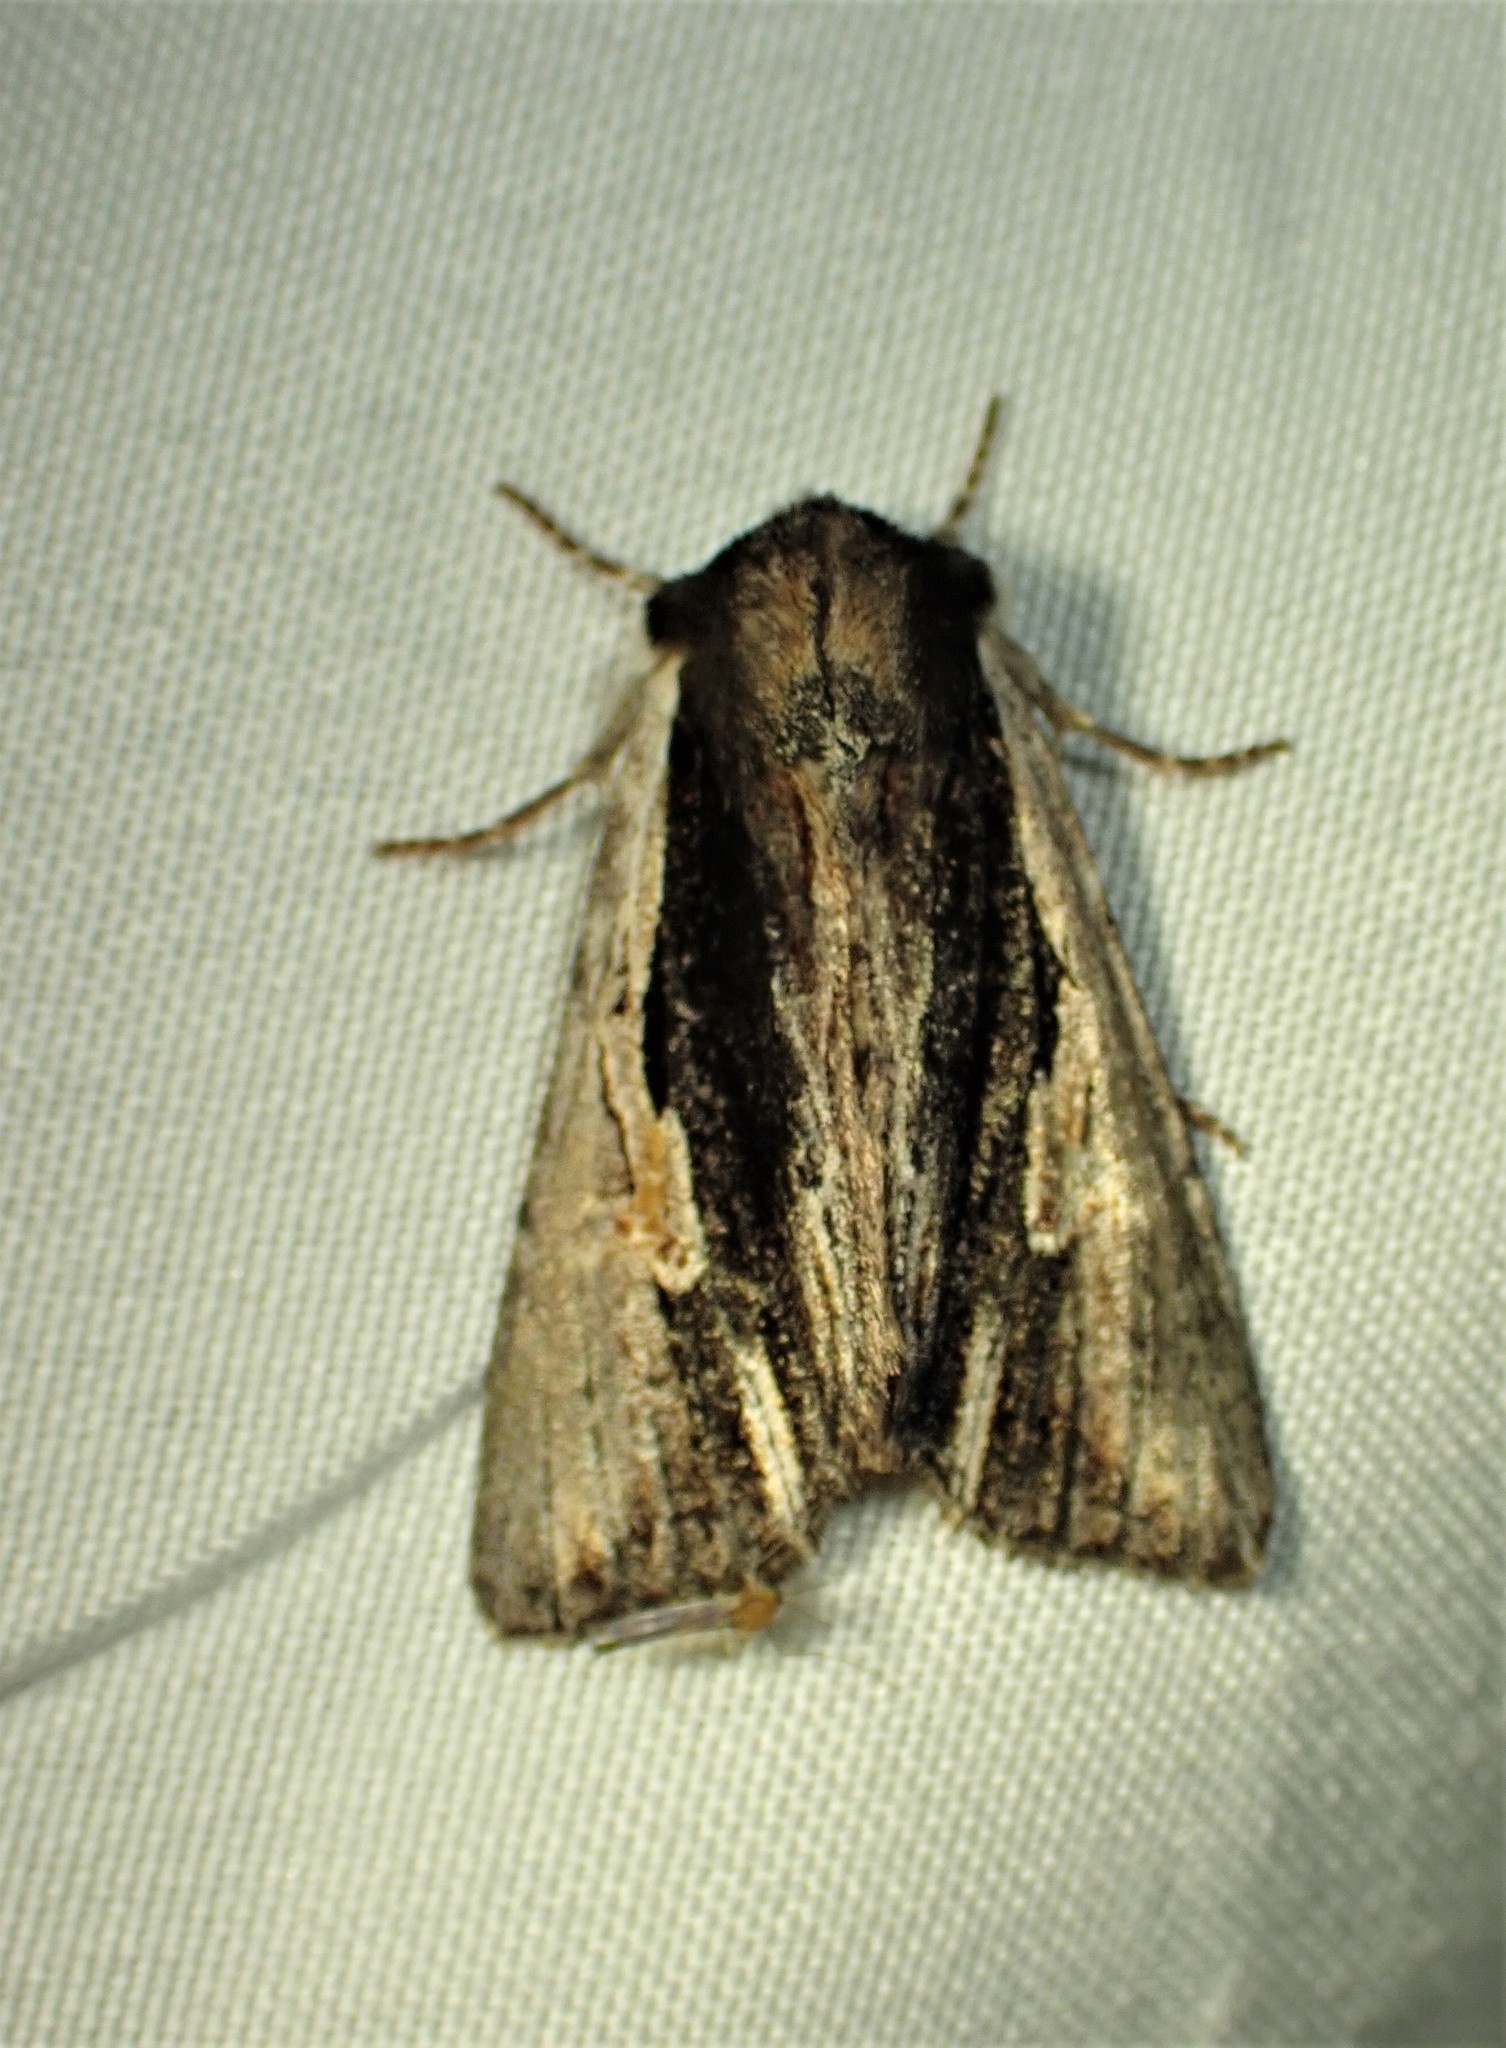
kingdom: Animalia
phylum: Arthropoda
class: Insecta
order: Lepidoptera
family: Noctuidae
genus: Achatia
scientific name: Achatia evicta
